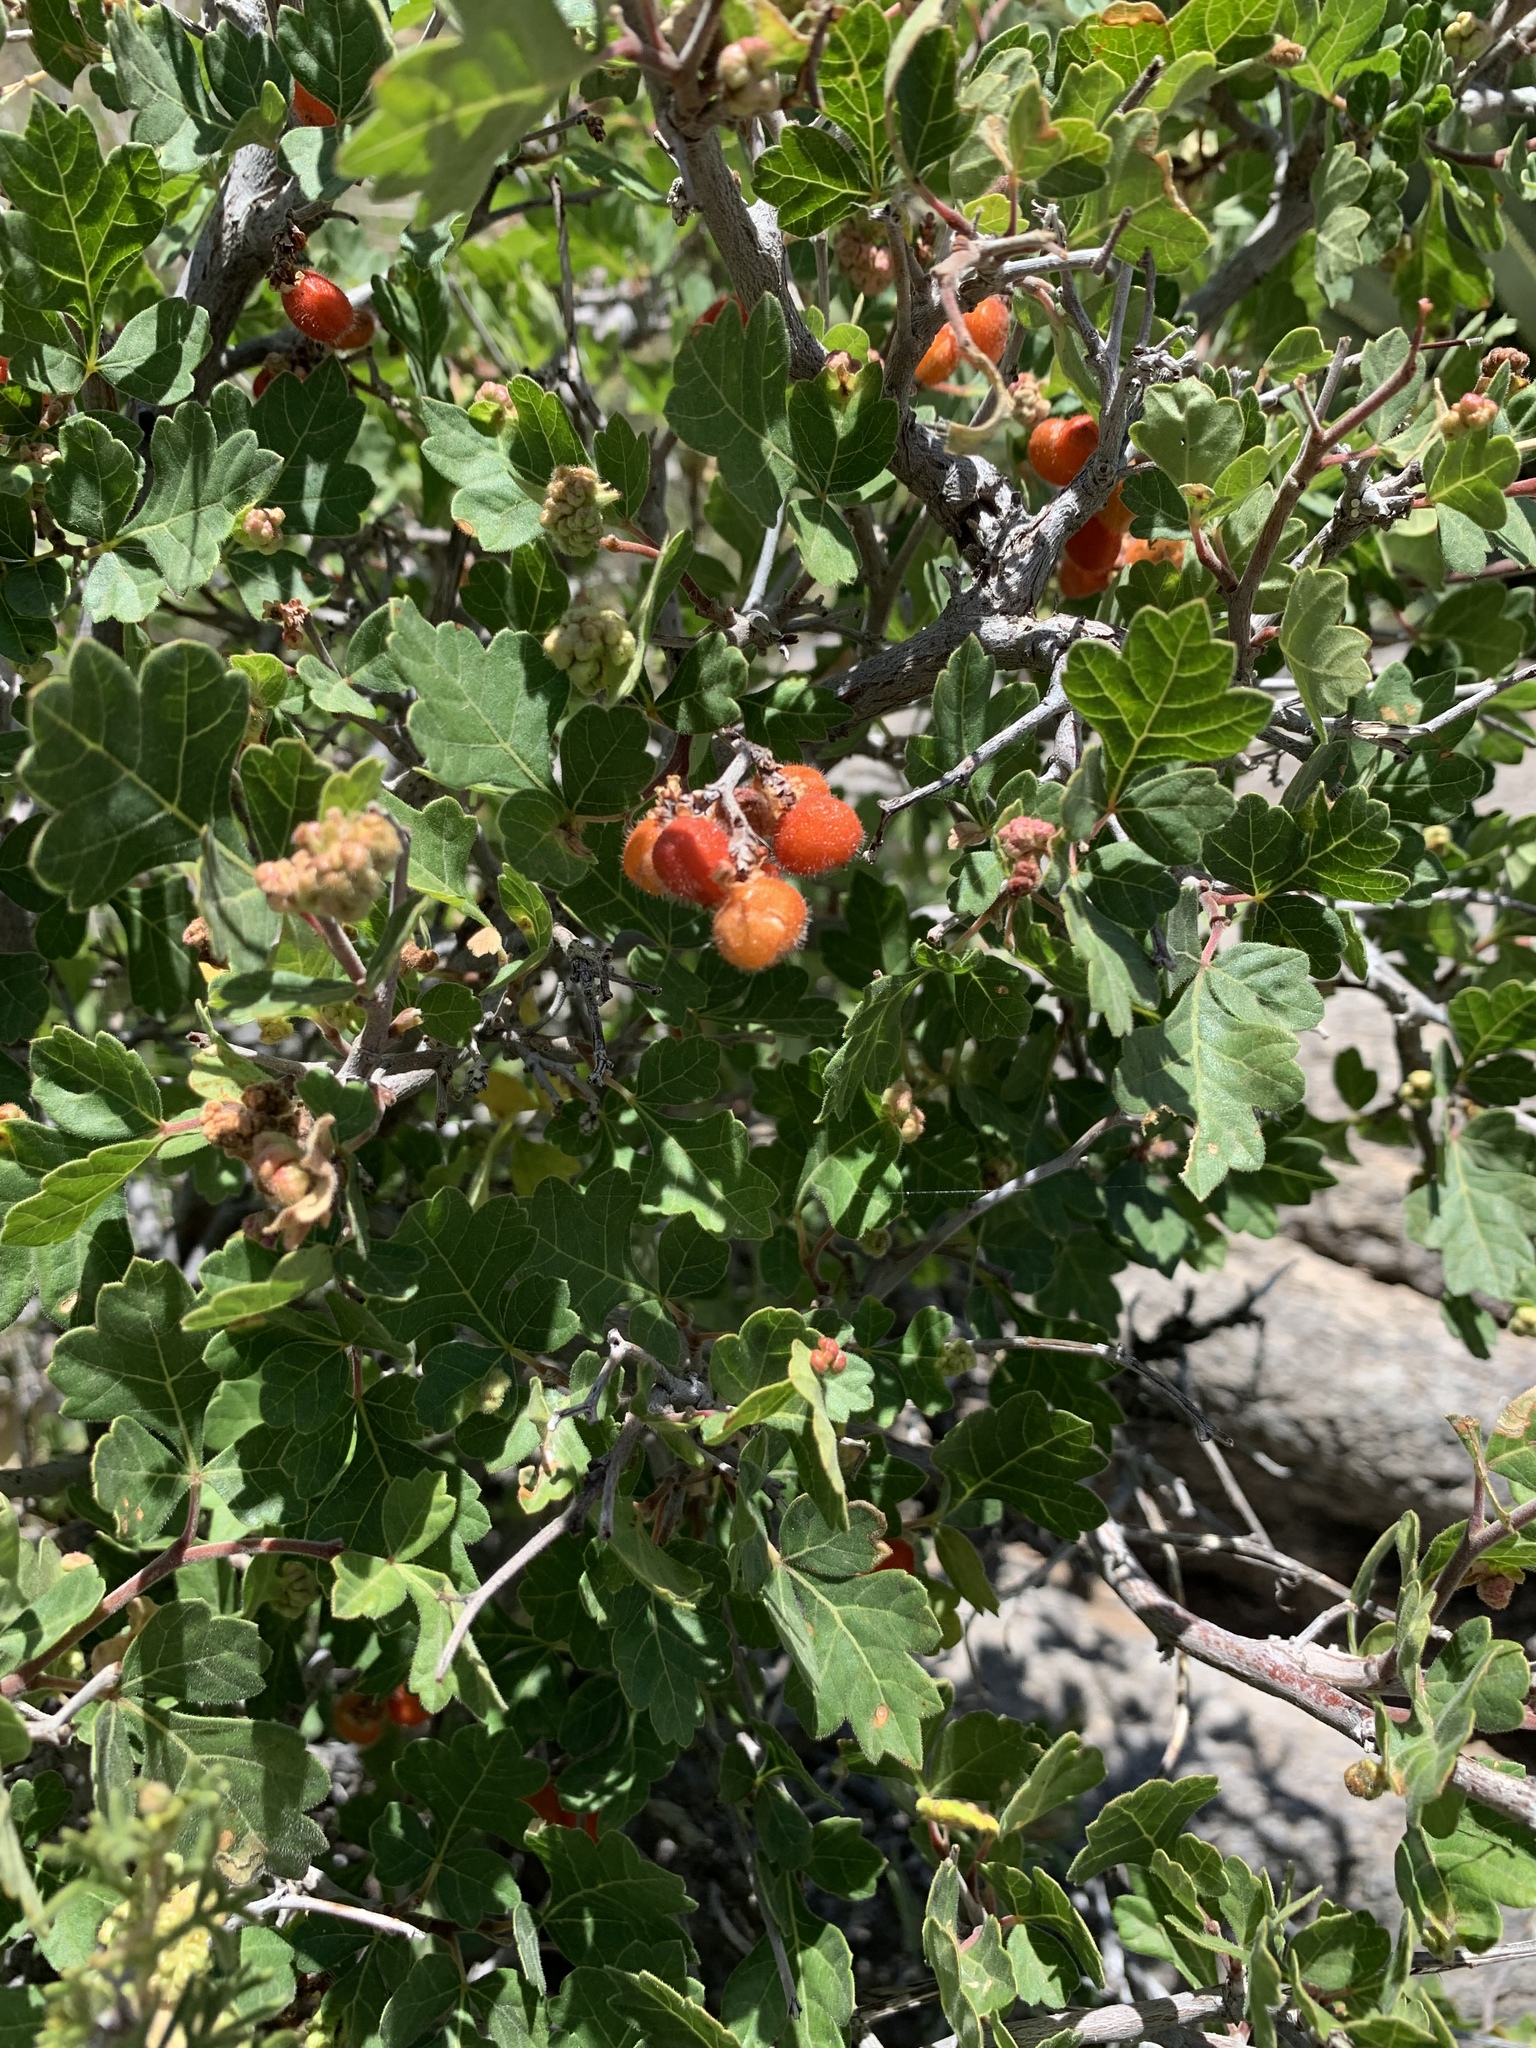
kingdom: Plantae
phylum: Tracheophyta
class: Magnoliopsida
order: Sapindales
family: Anacardiaceae
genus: Rhus
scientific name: Rhus aromatica
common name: Aromatic sumac
